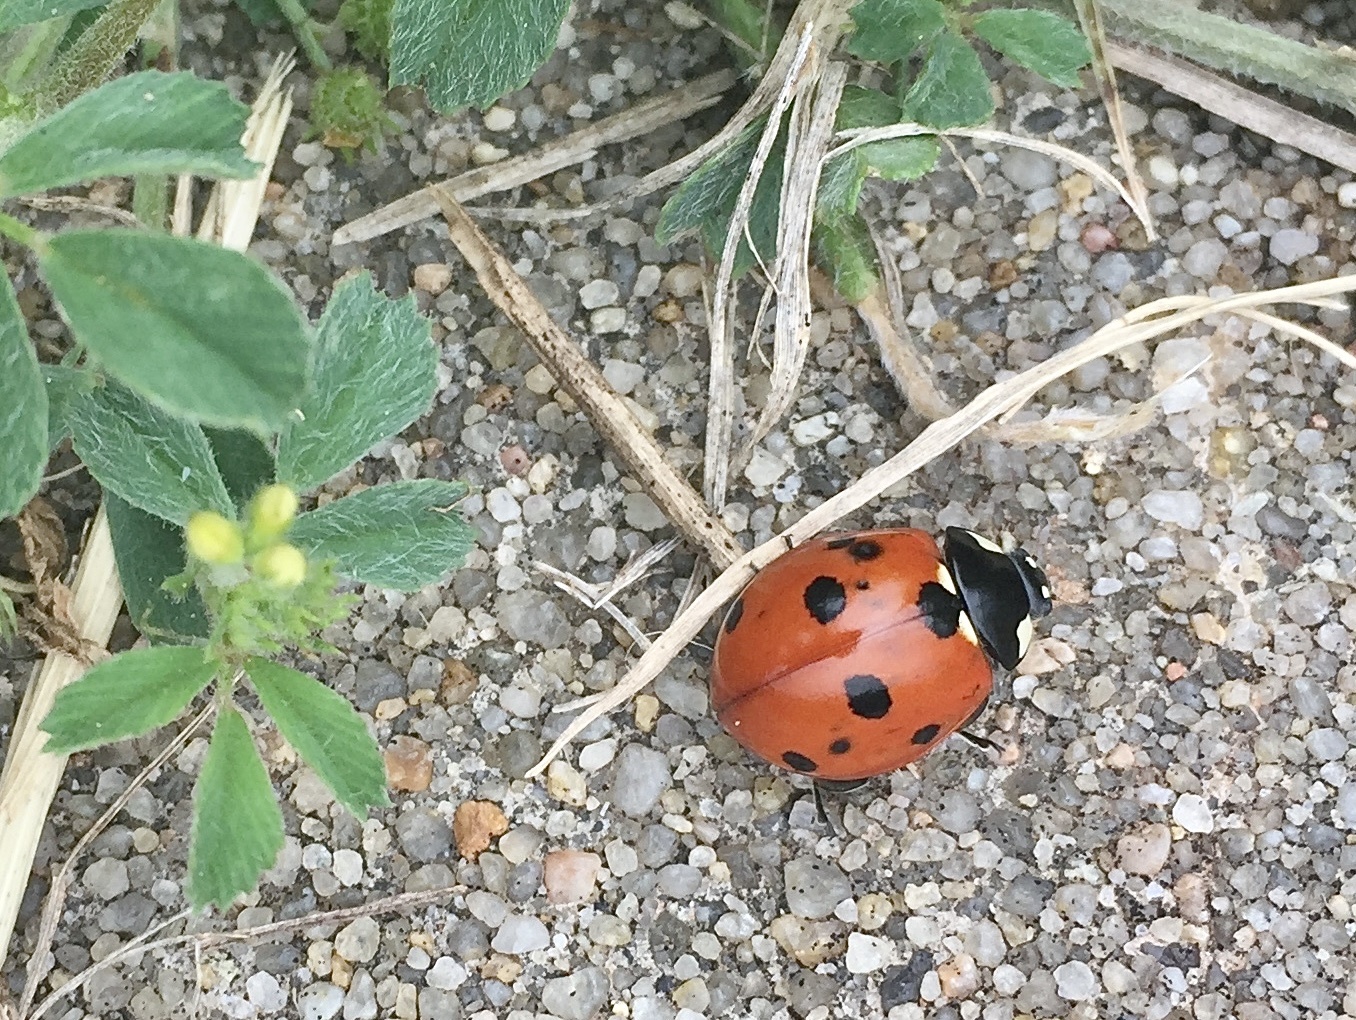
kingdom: Animalia
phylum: Arthropoda
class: Insecta
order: Coleoptera
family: Coccinellidae
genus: Coccinella
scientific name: Coccinella septempunctata
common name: Sevenspotted lady beetle
